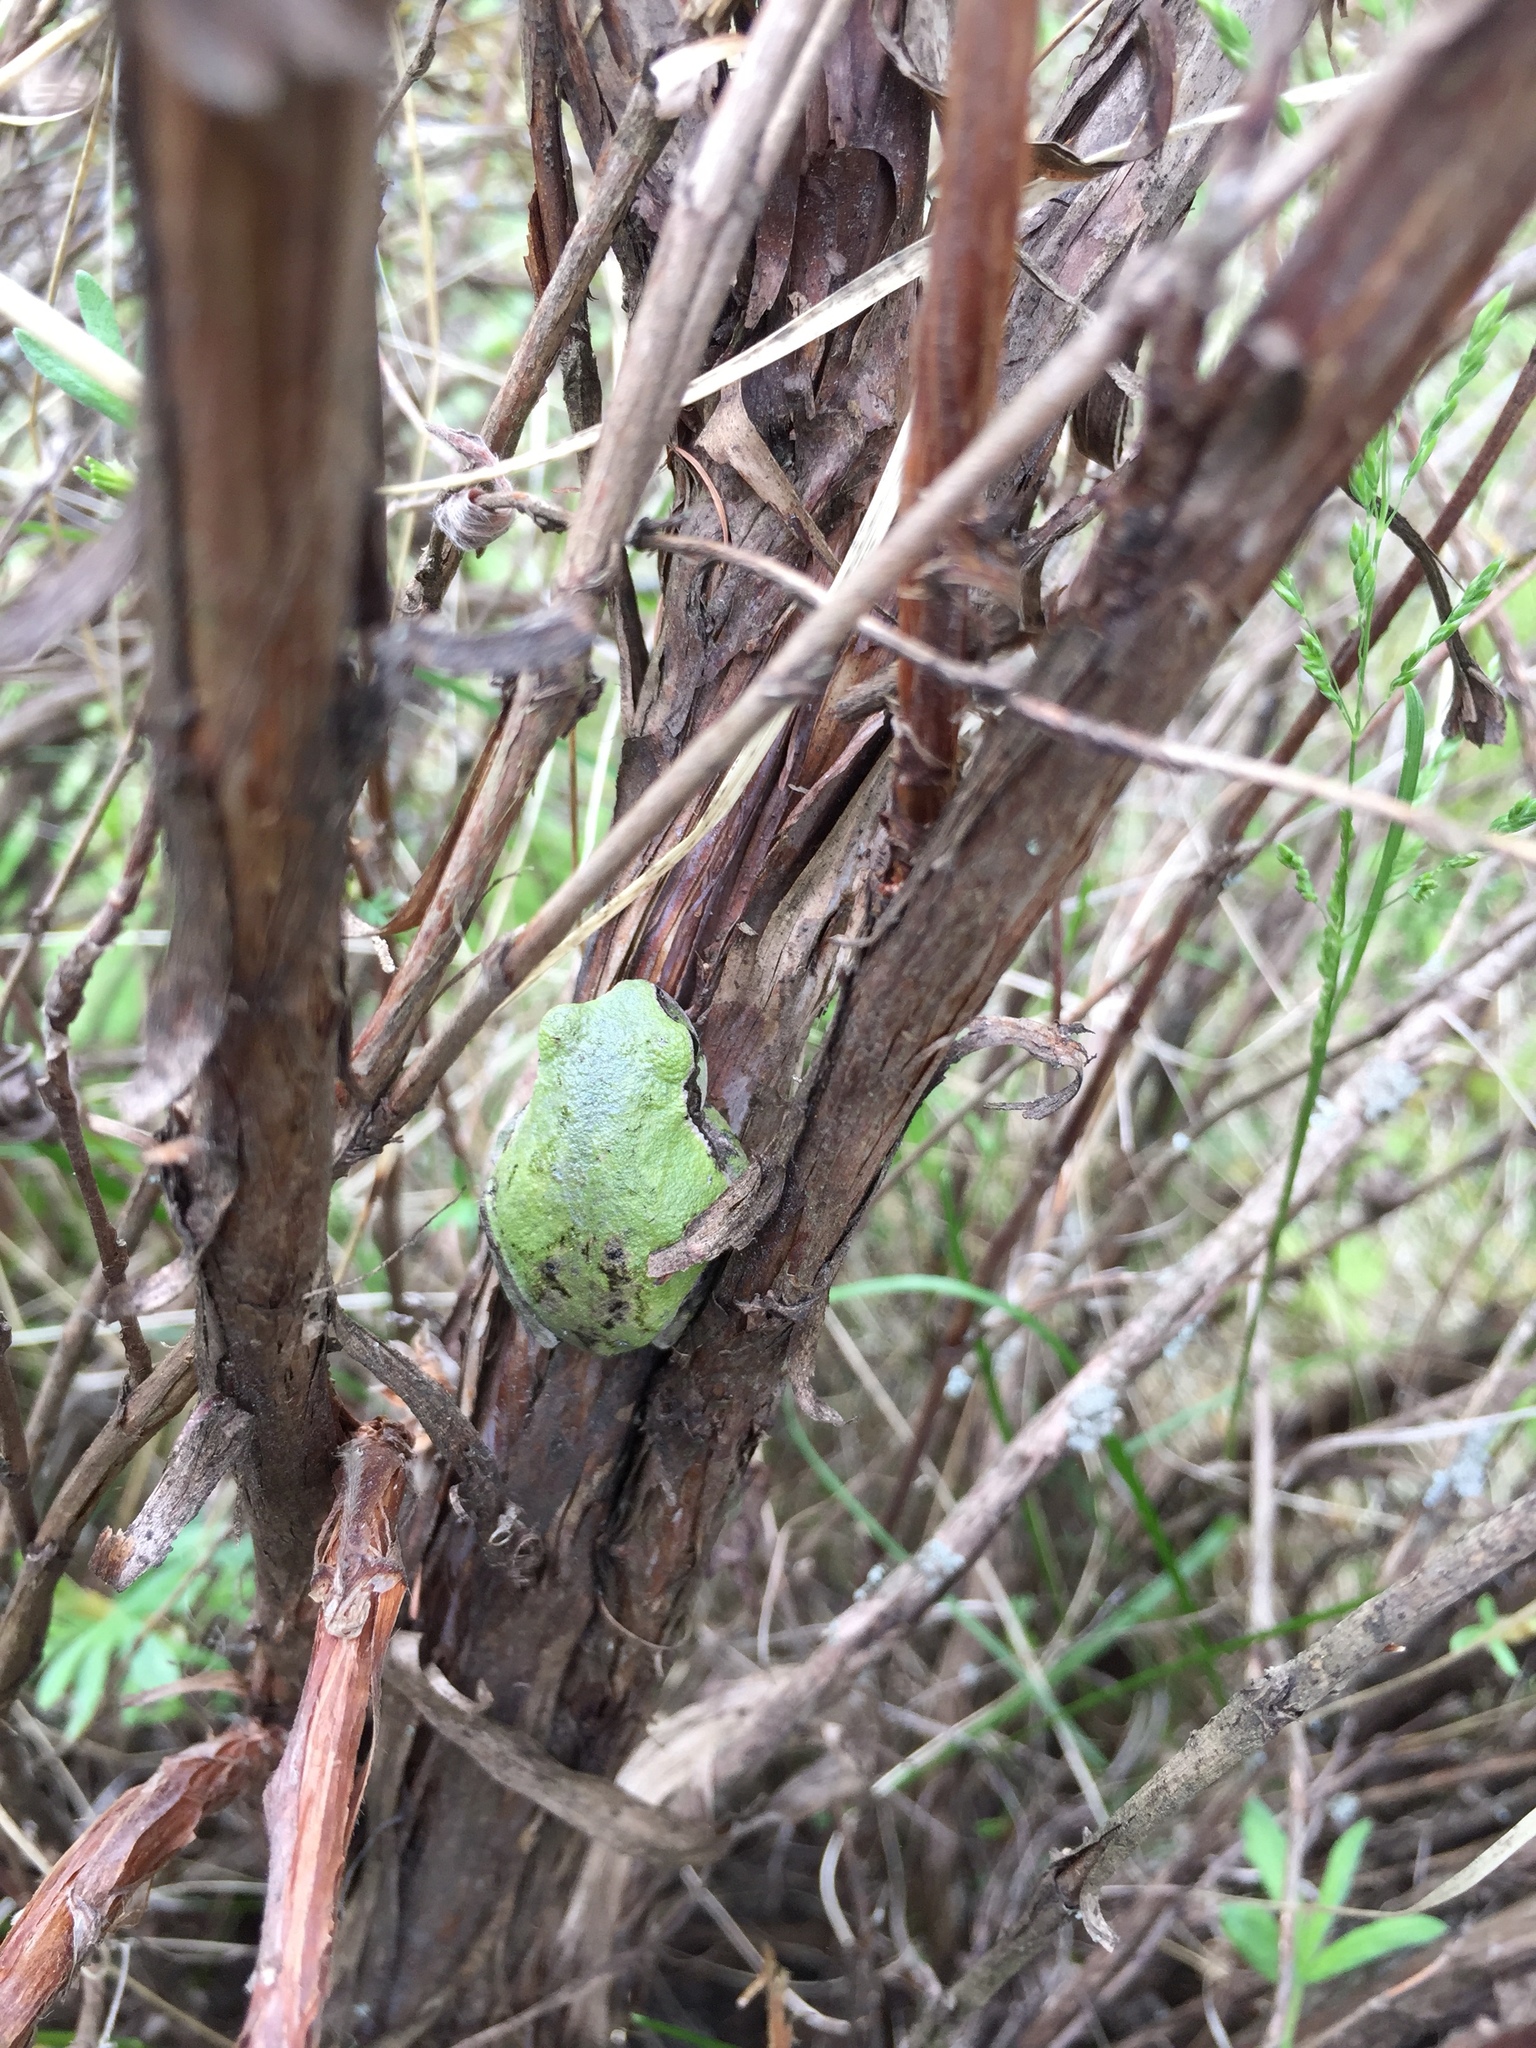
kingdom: Animalia
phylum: Chordata
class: Amphibia
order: Anura
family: Hylidae
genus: Hyla
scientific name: Hyla
